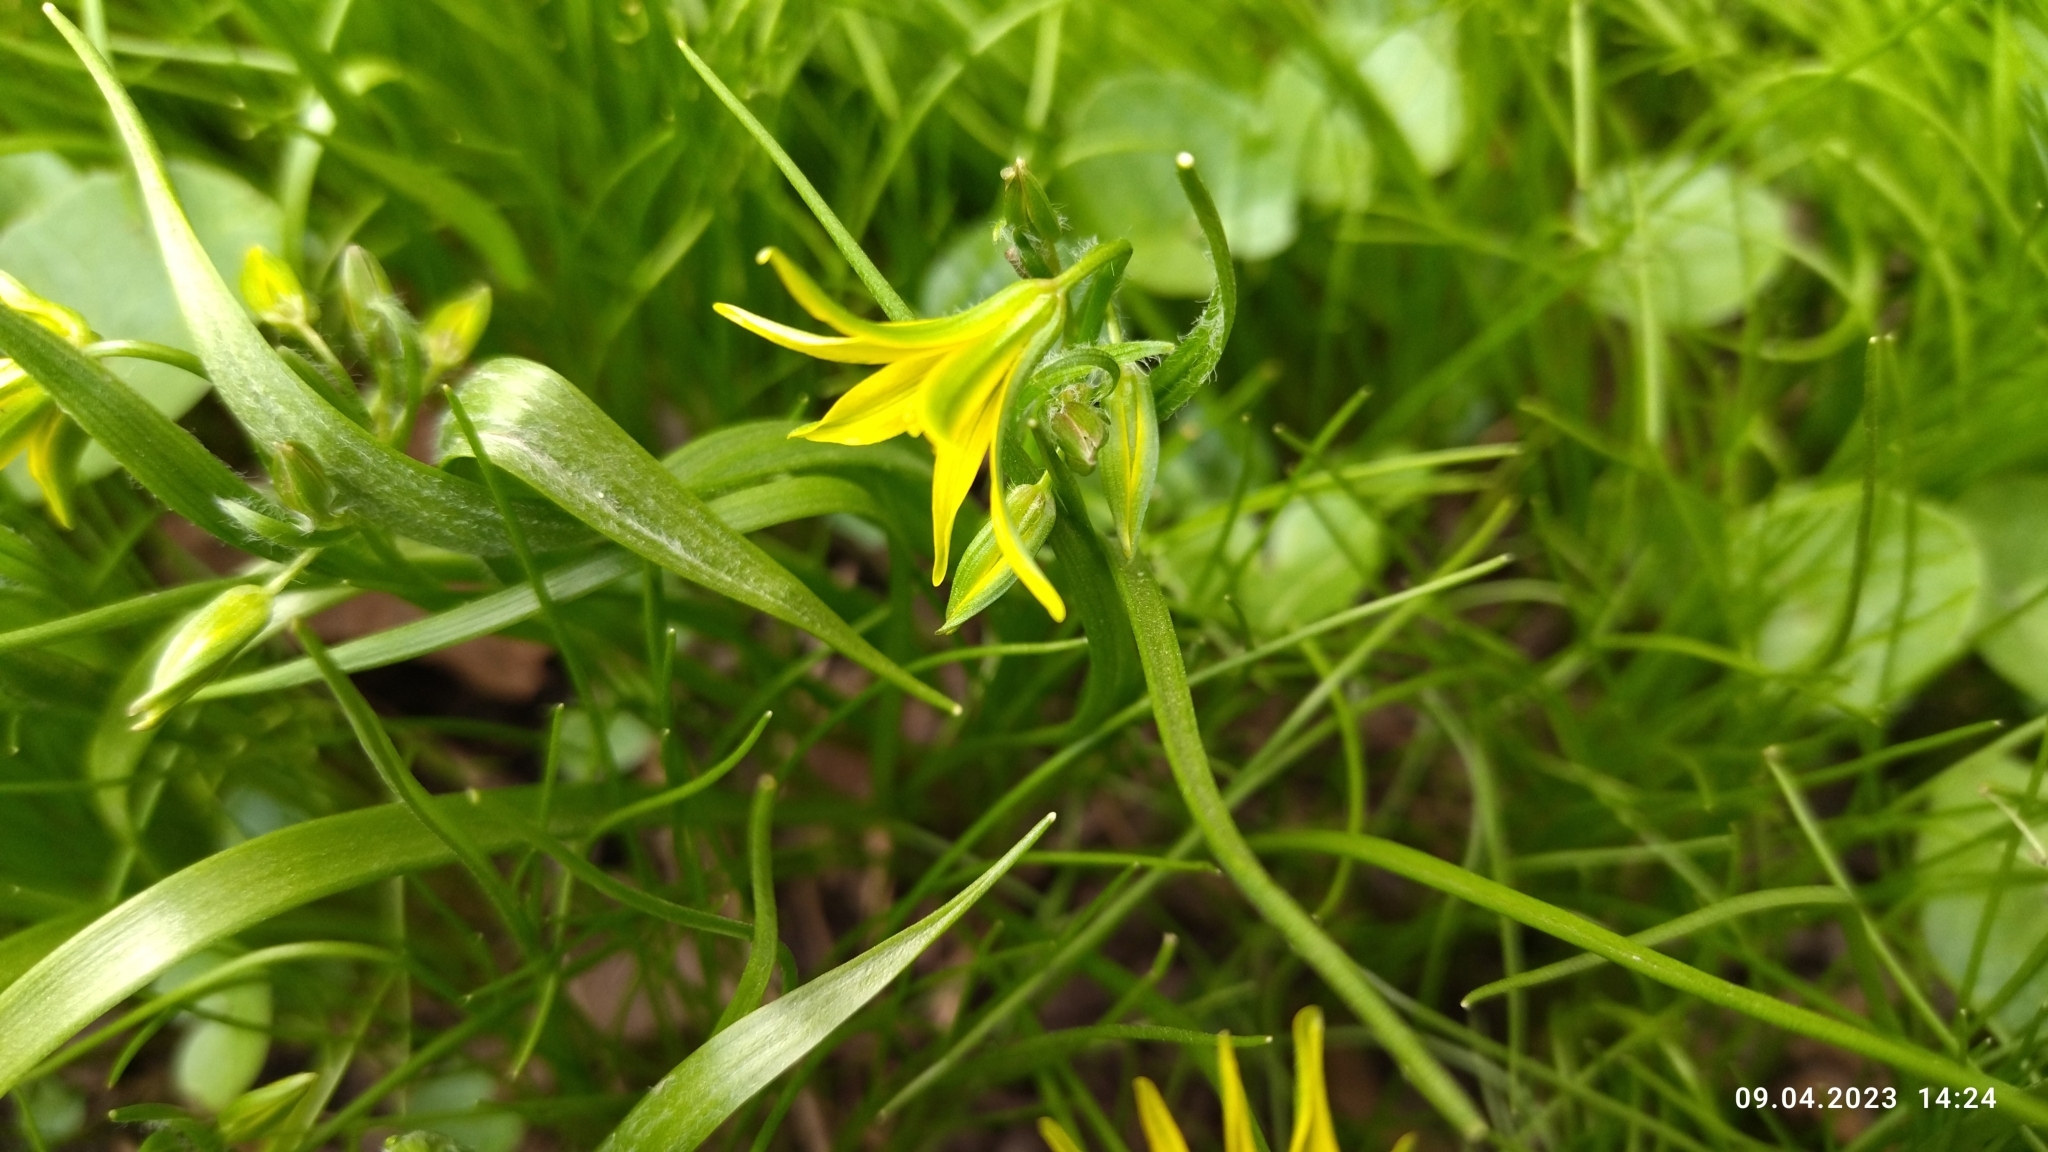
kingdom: Plantae
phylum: Tracheophyta
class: Liliopsida
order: Liliales
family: Liliaceae
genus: Gagea
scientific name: Gagea minima
